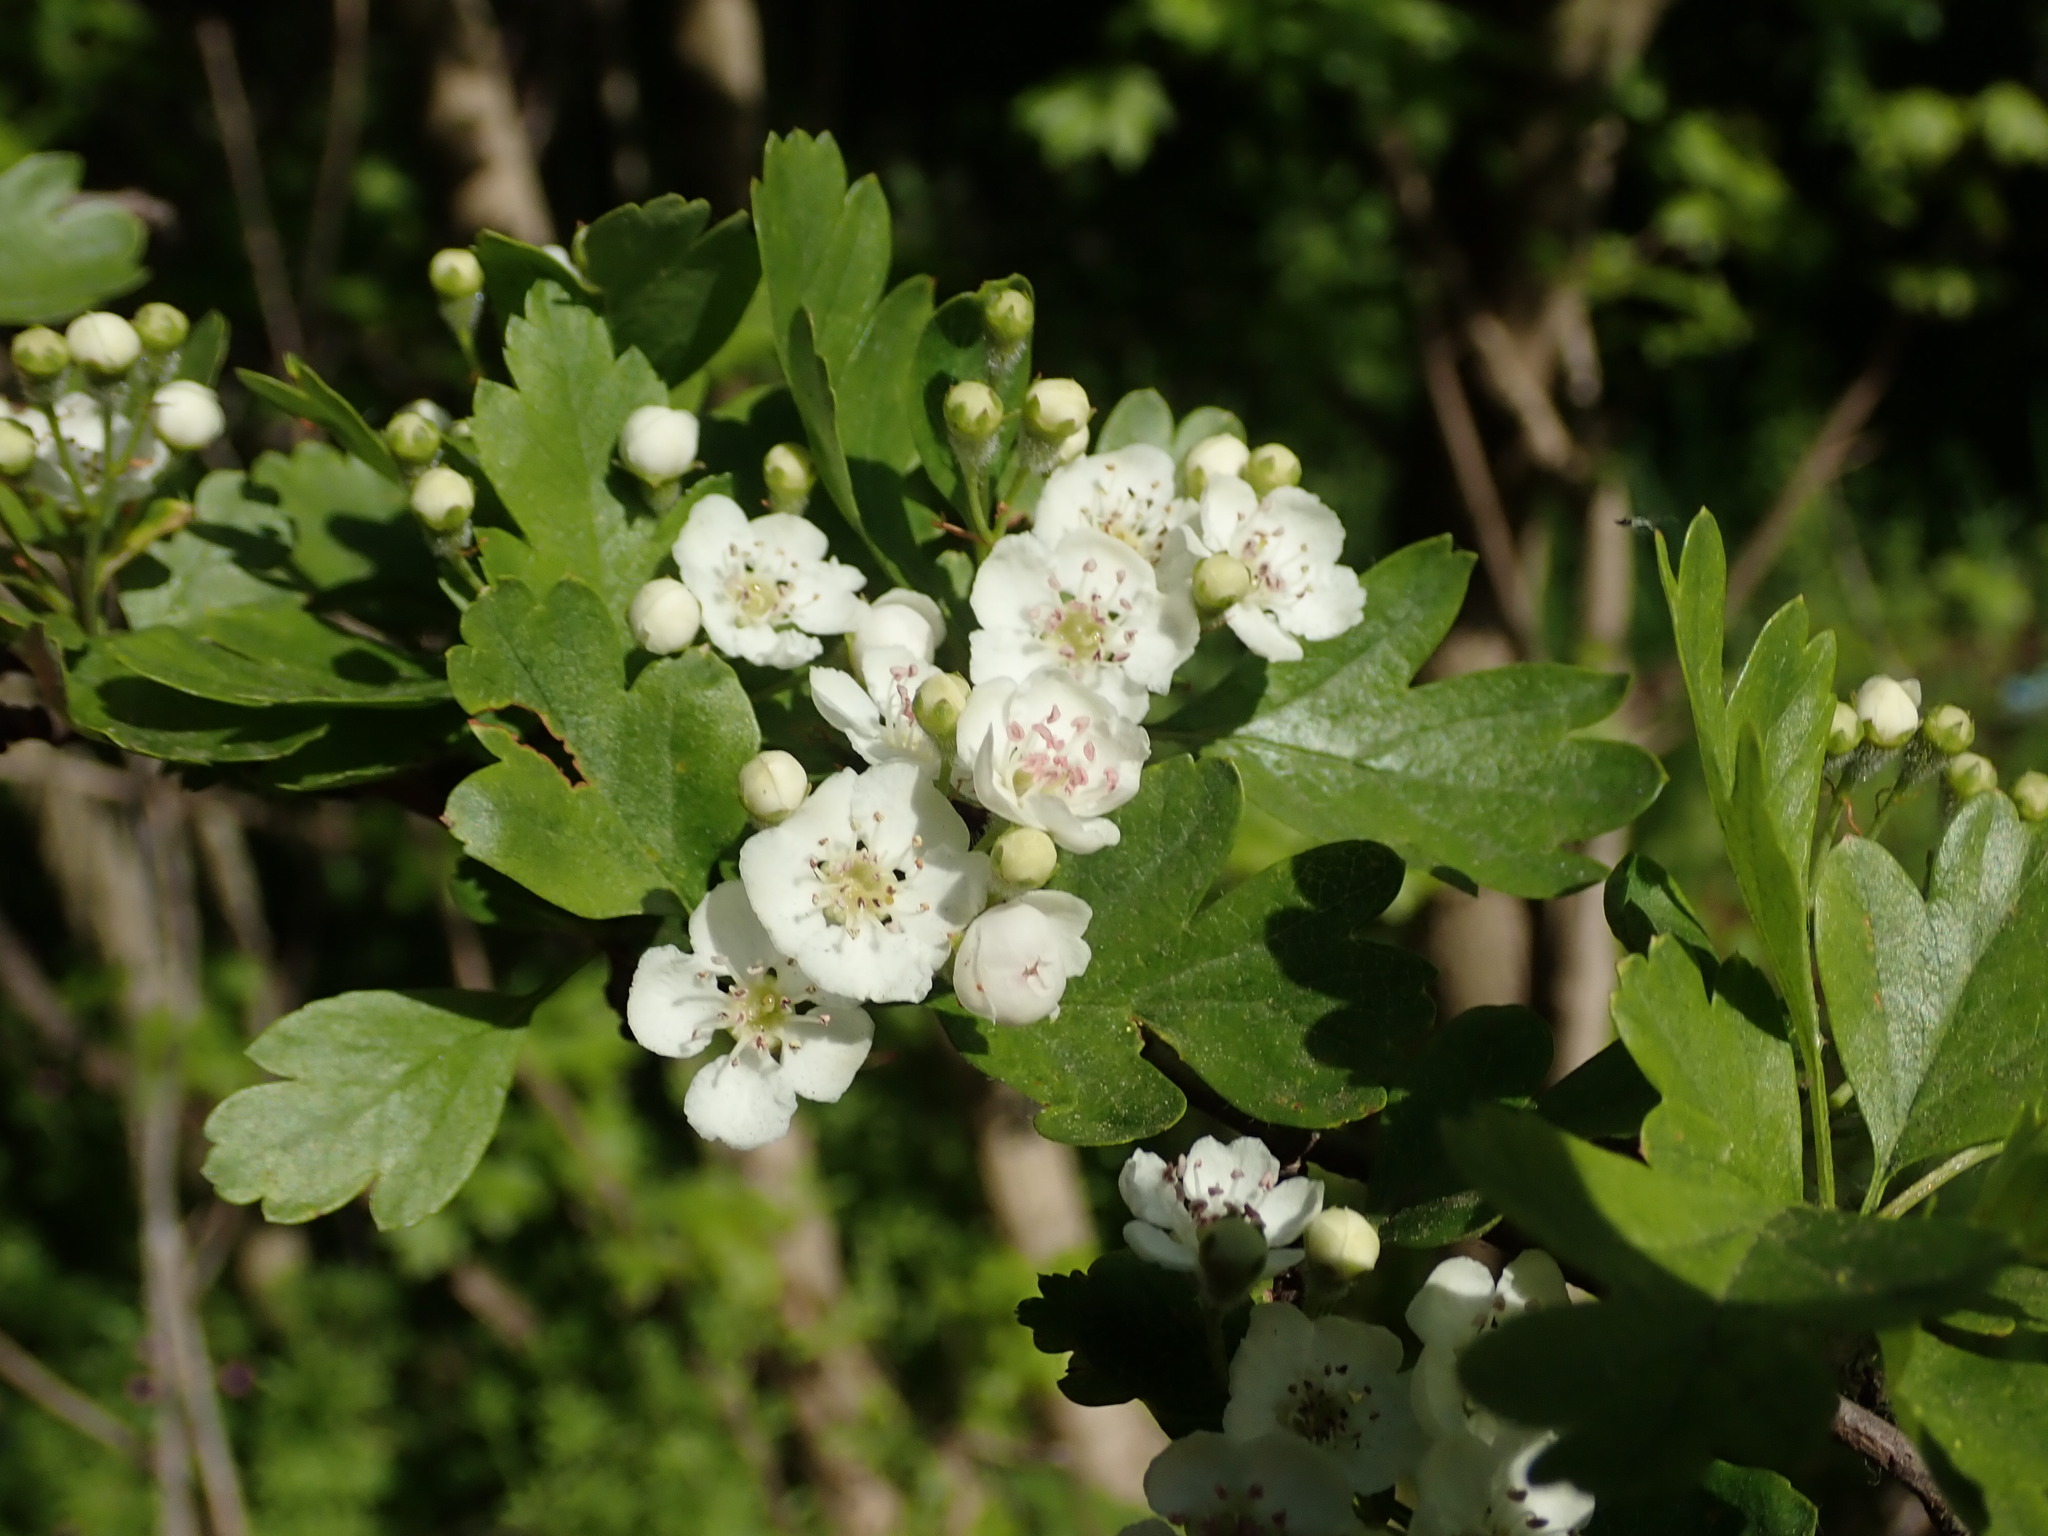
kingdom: Plantae
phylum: Tracheophyta
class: Magnoliopsida
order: Rosales
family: Rosaceae
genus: Crataegus
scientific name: Crataegus monogyna
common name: Hawthorn
